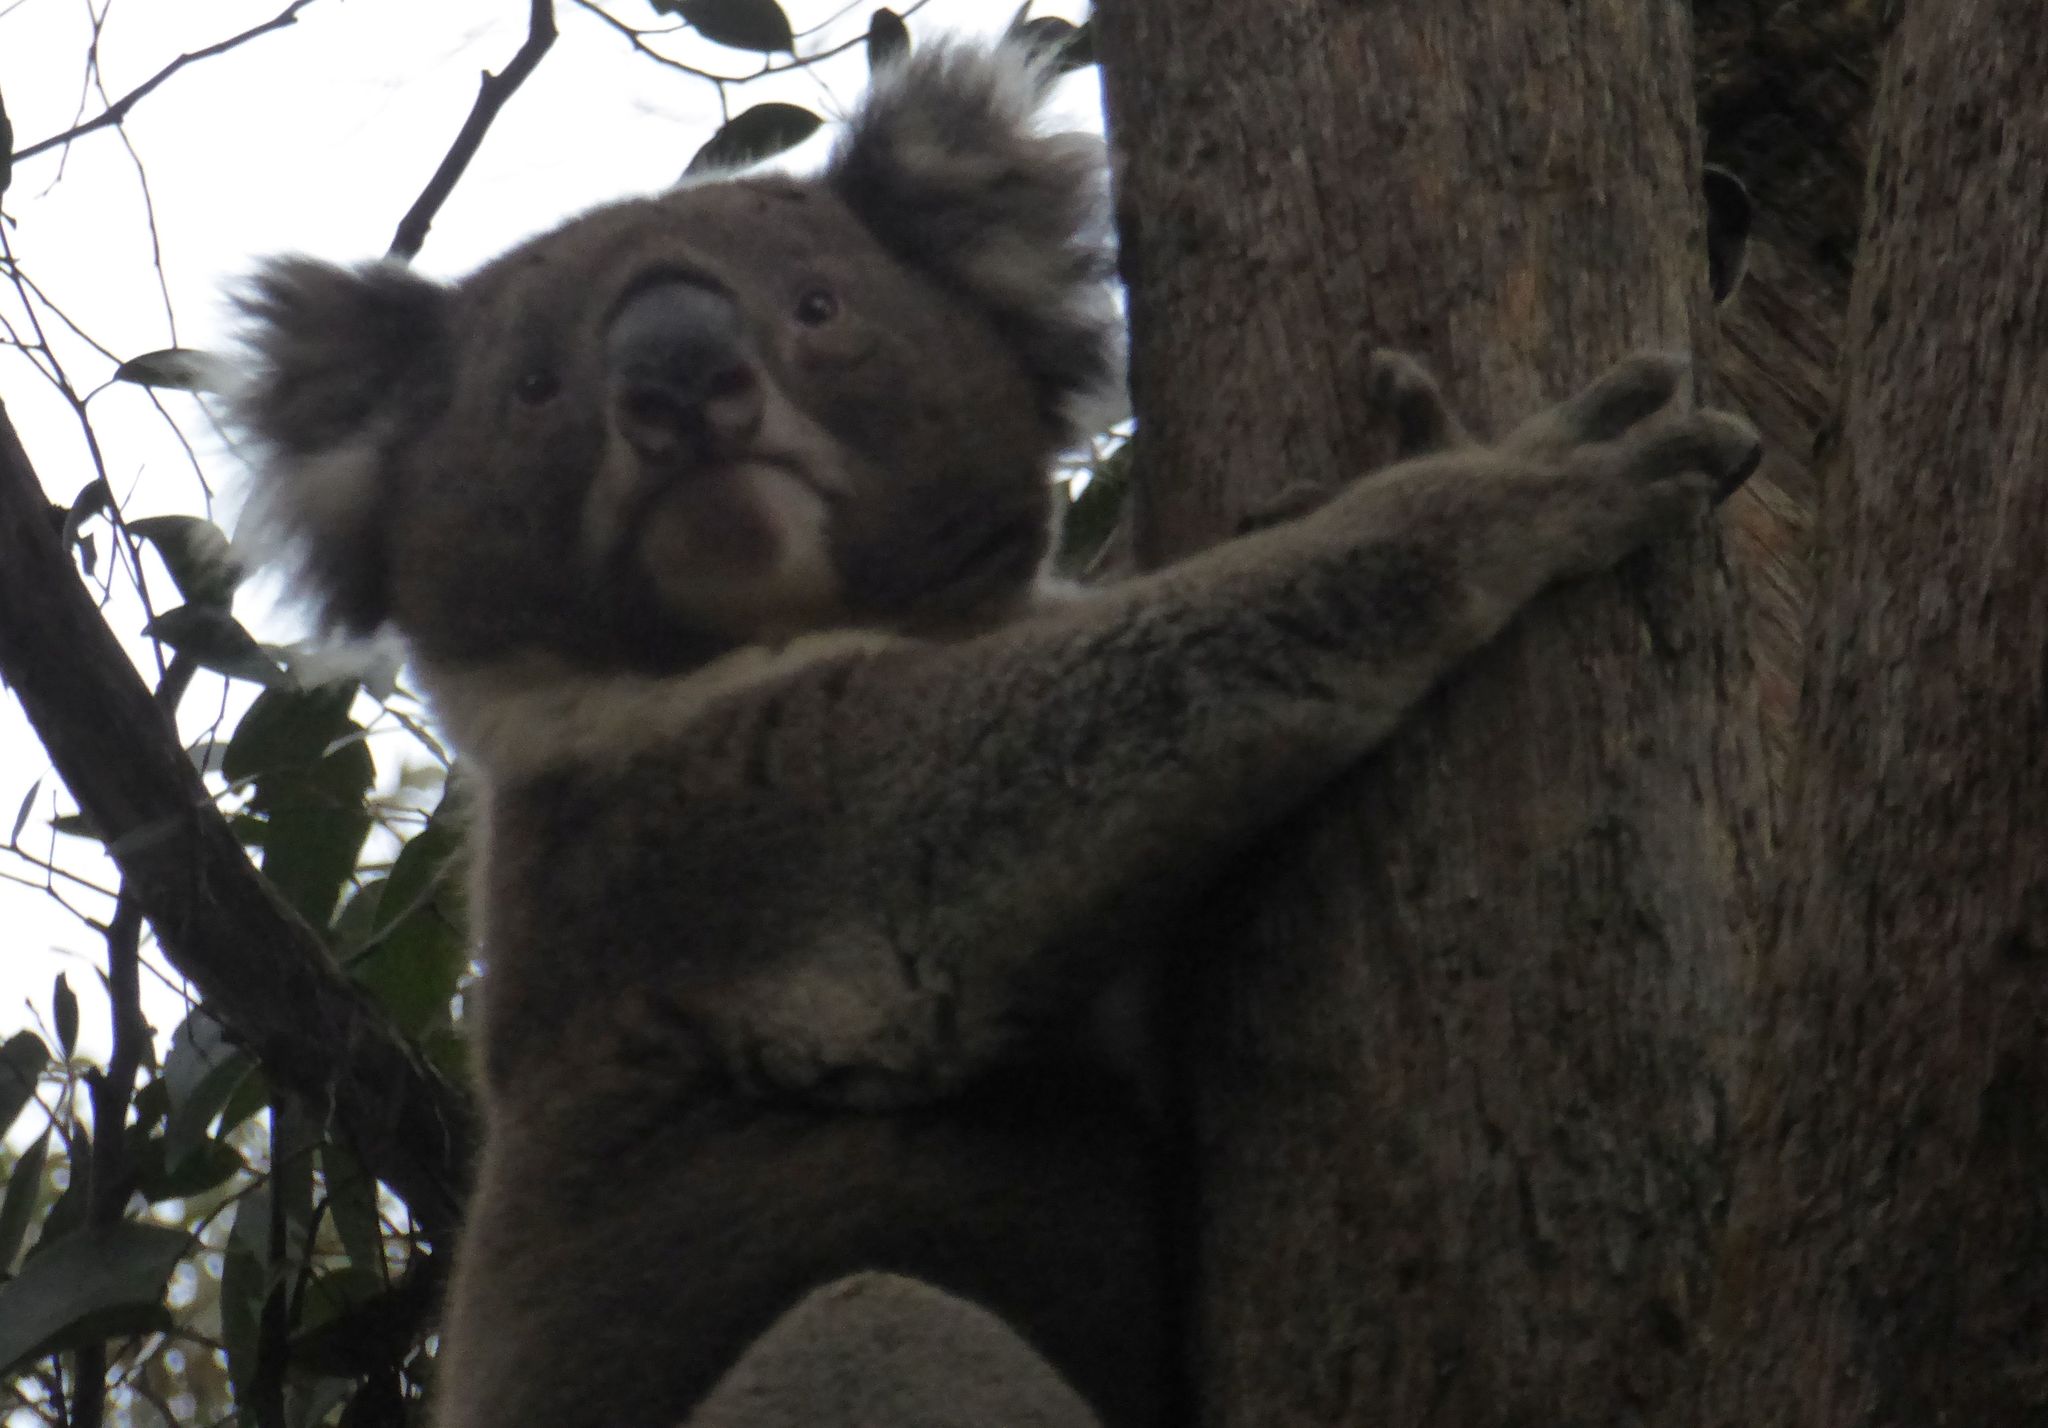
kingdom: Animalia
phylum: Chordata
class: Mammalia
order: Diprotodontia
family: Phascolarctidae
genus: Phascolarctos
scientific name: Phascolarctos cinereus
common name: Koala
